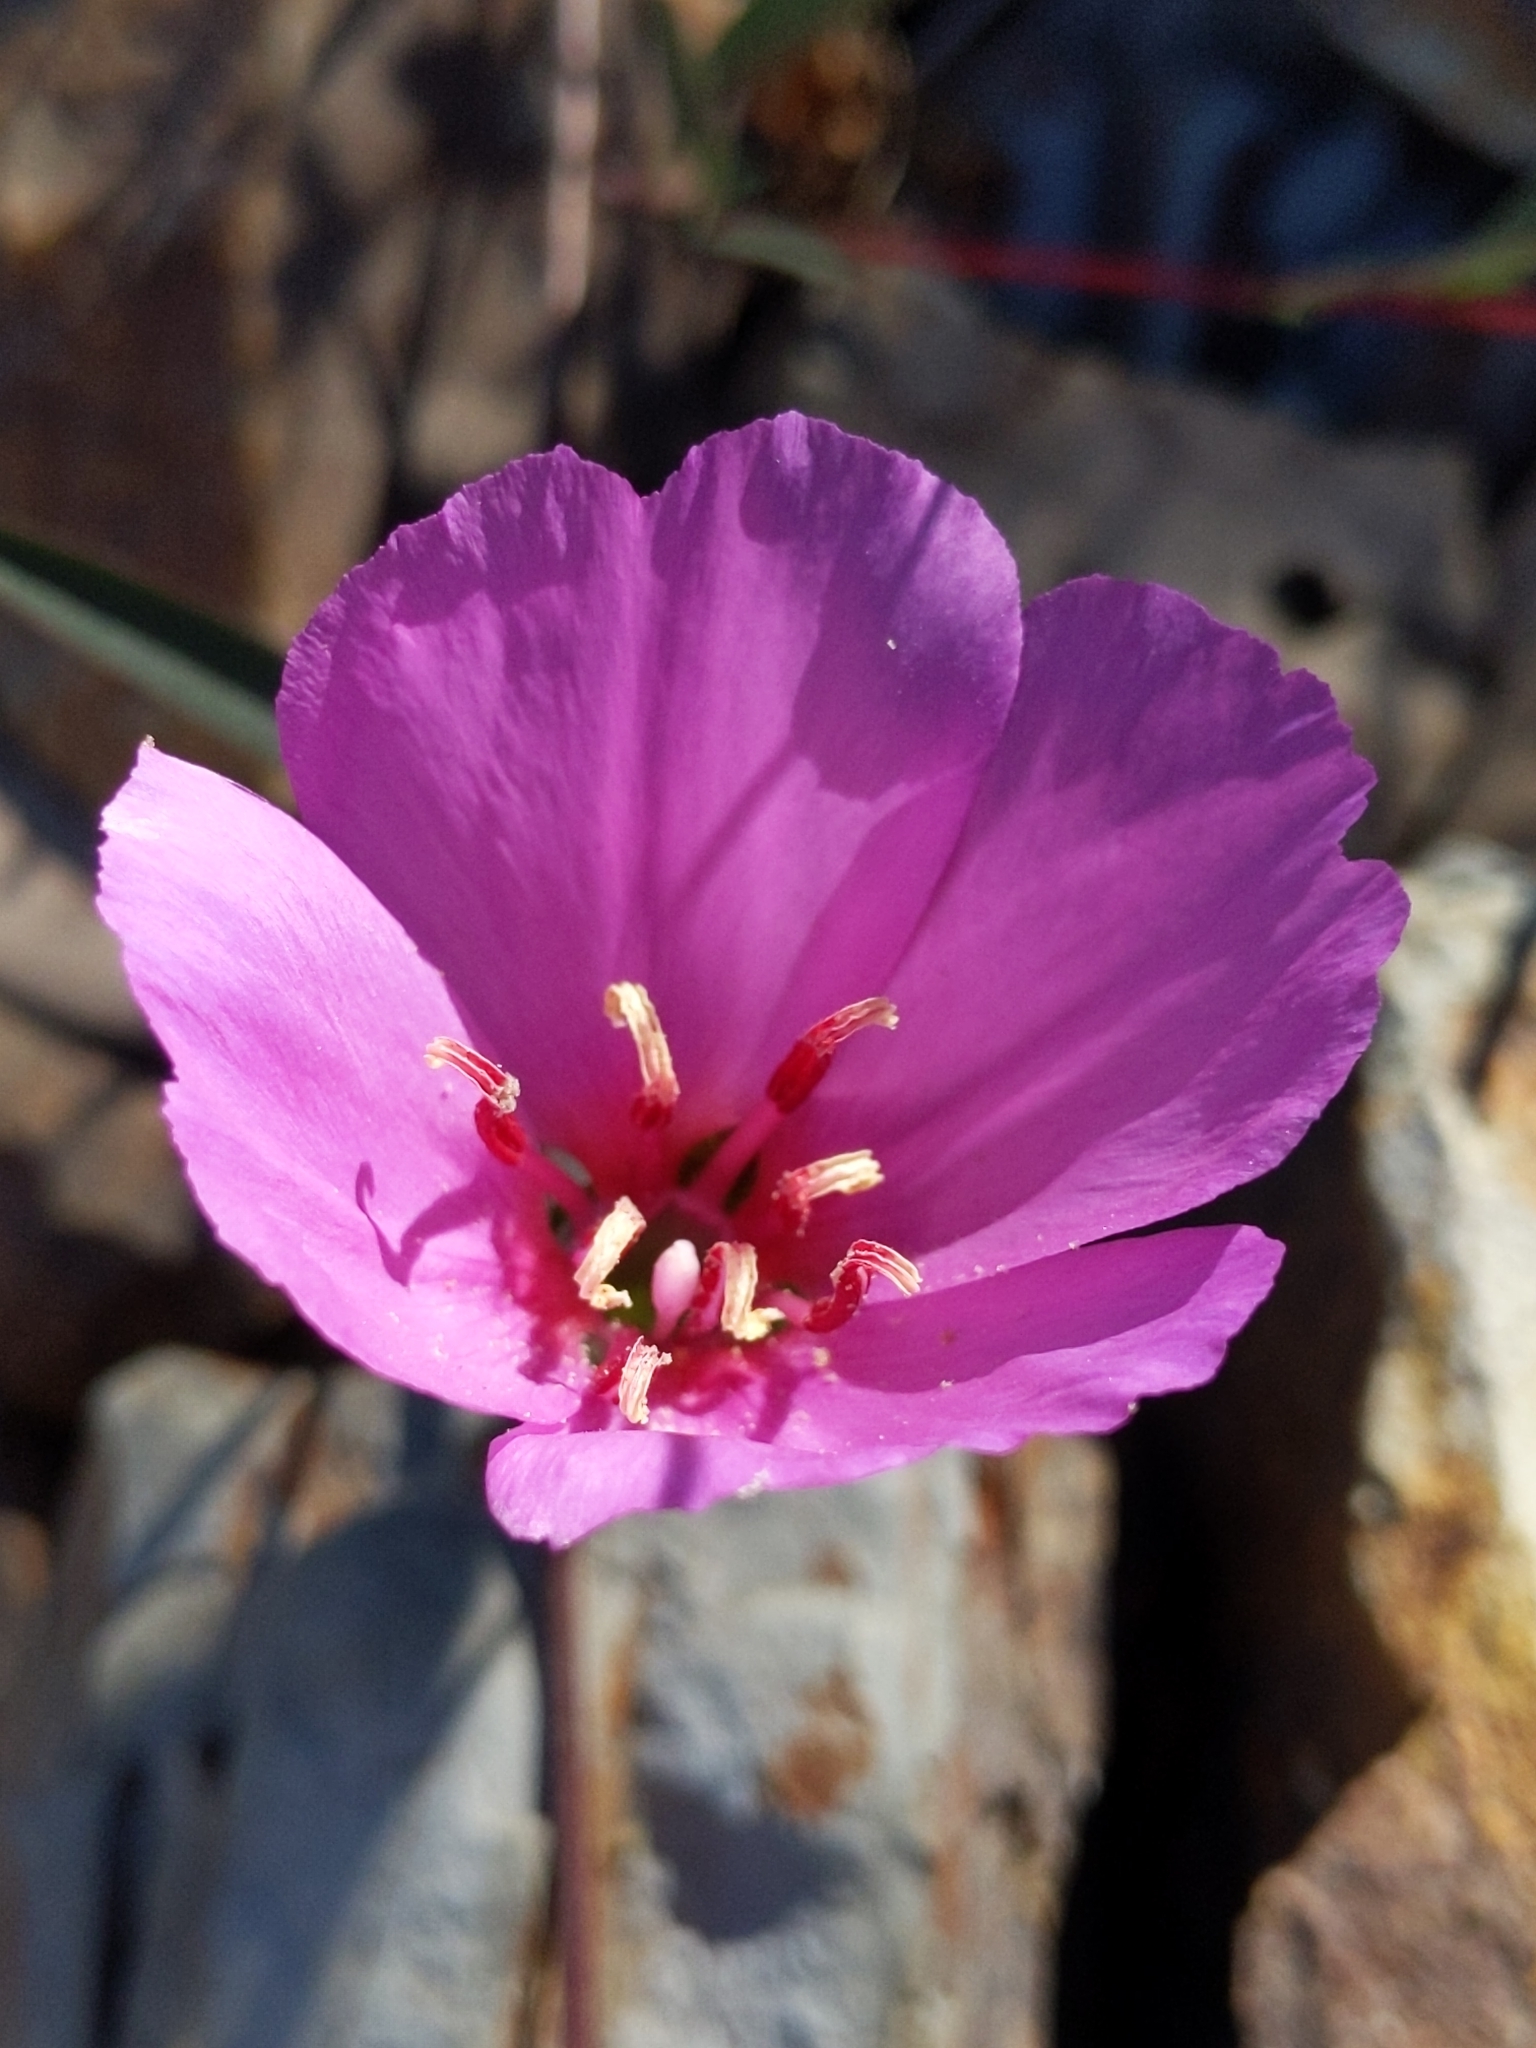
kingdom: Plantae
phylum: Tracheophyta
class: Magnoliopsida
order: Myrtales
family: Onagraceae
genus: Clarkia
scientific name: Clarkia rubicunda
